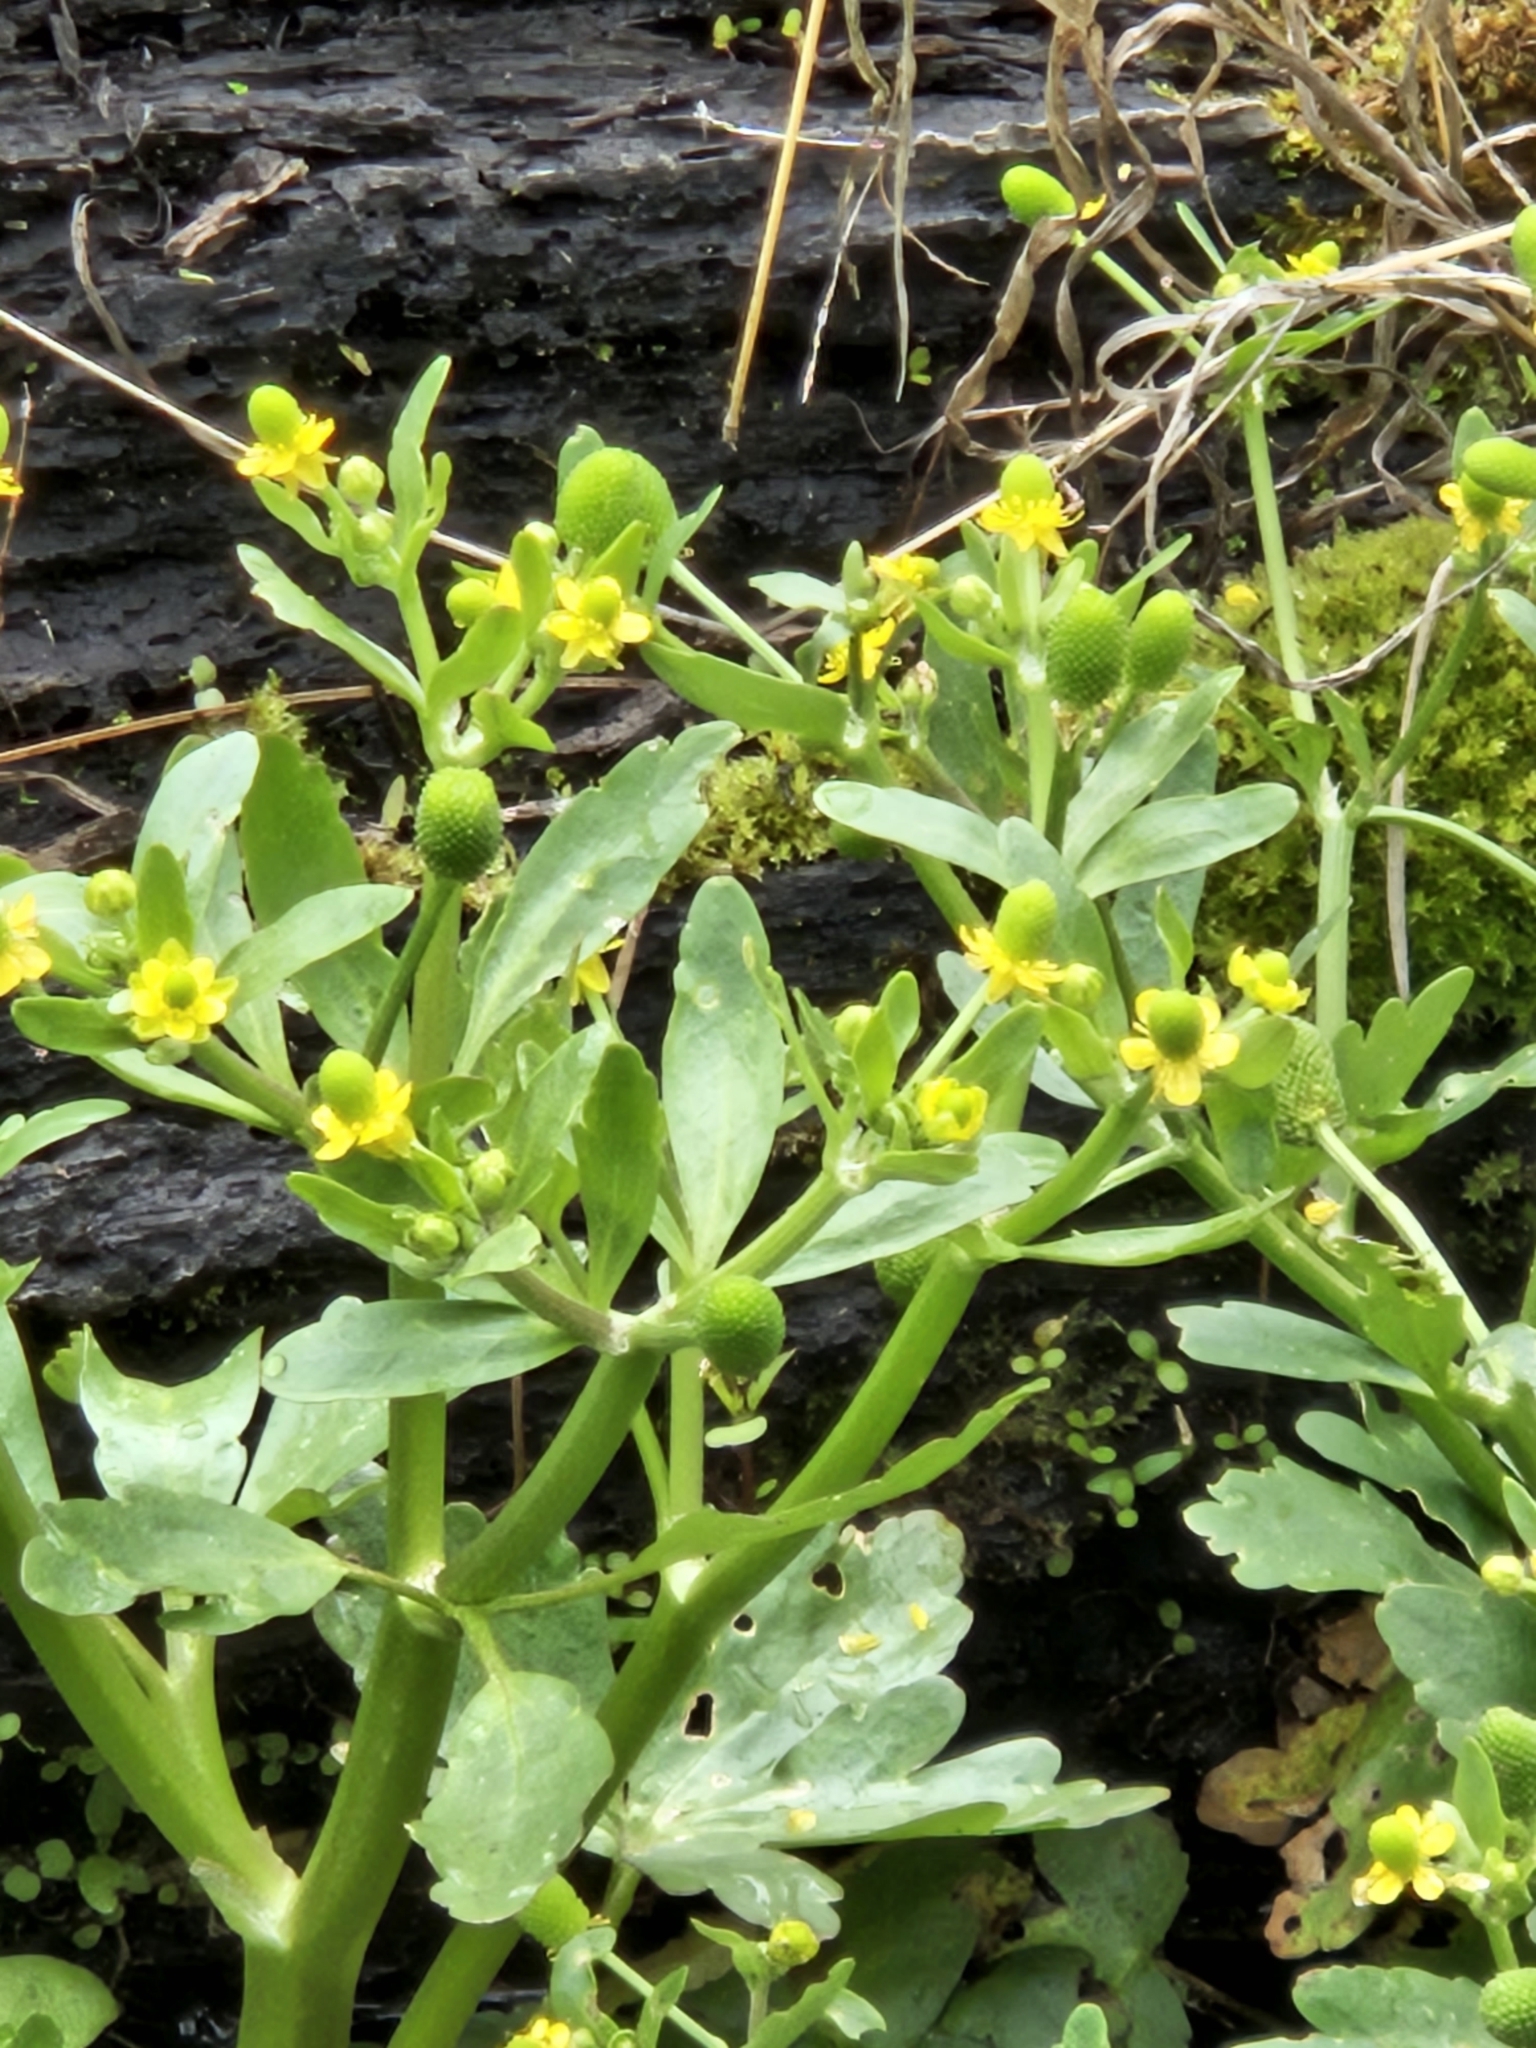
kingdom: Plantae
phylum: Tracheophyta
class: Magnoliopsida
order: Ranunculales
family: Ranunculaceae
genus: Ranunculus
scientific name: Ranunculus sceleratus
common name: Celery-leaved buttercup
